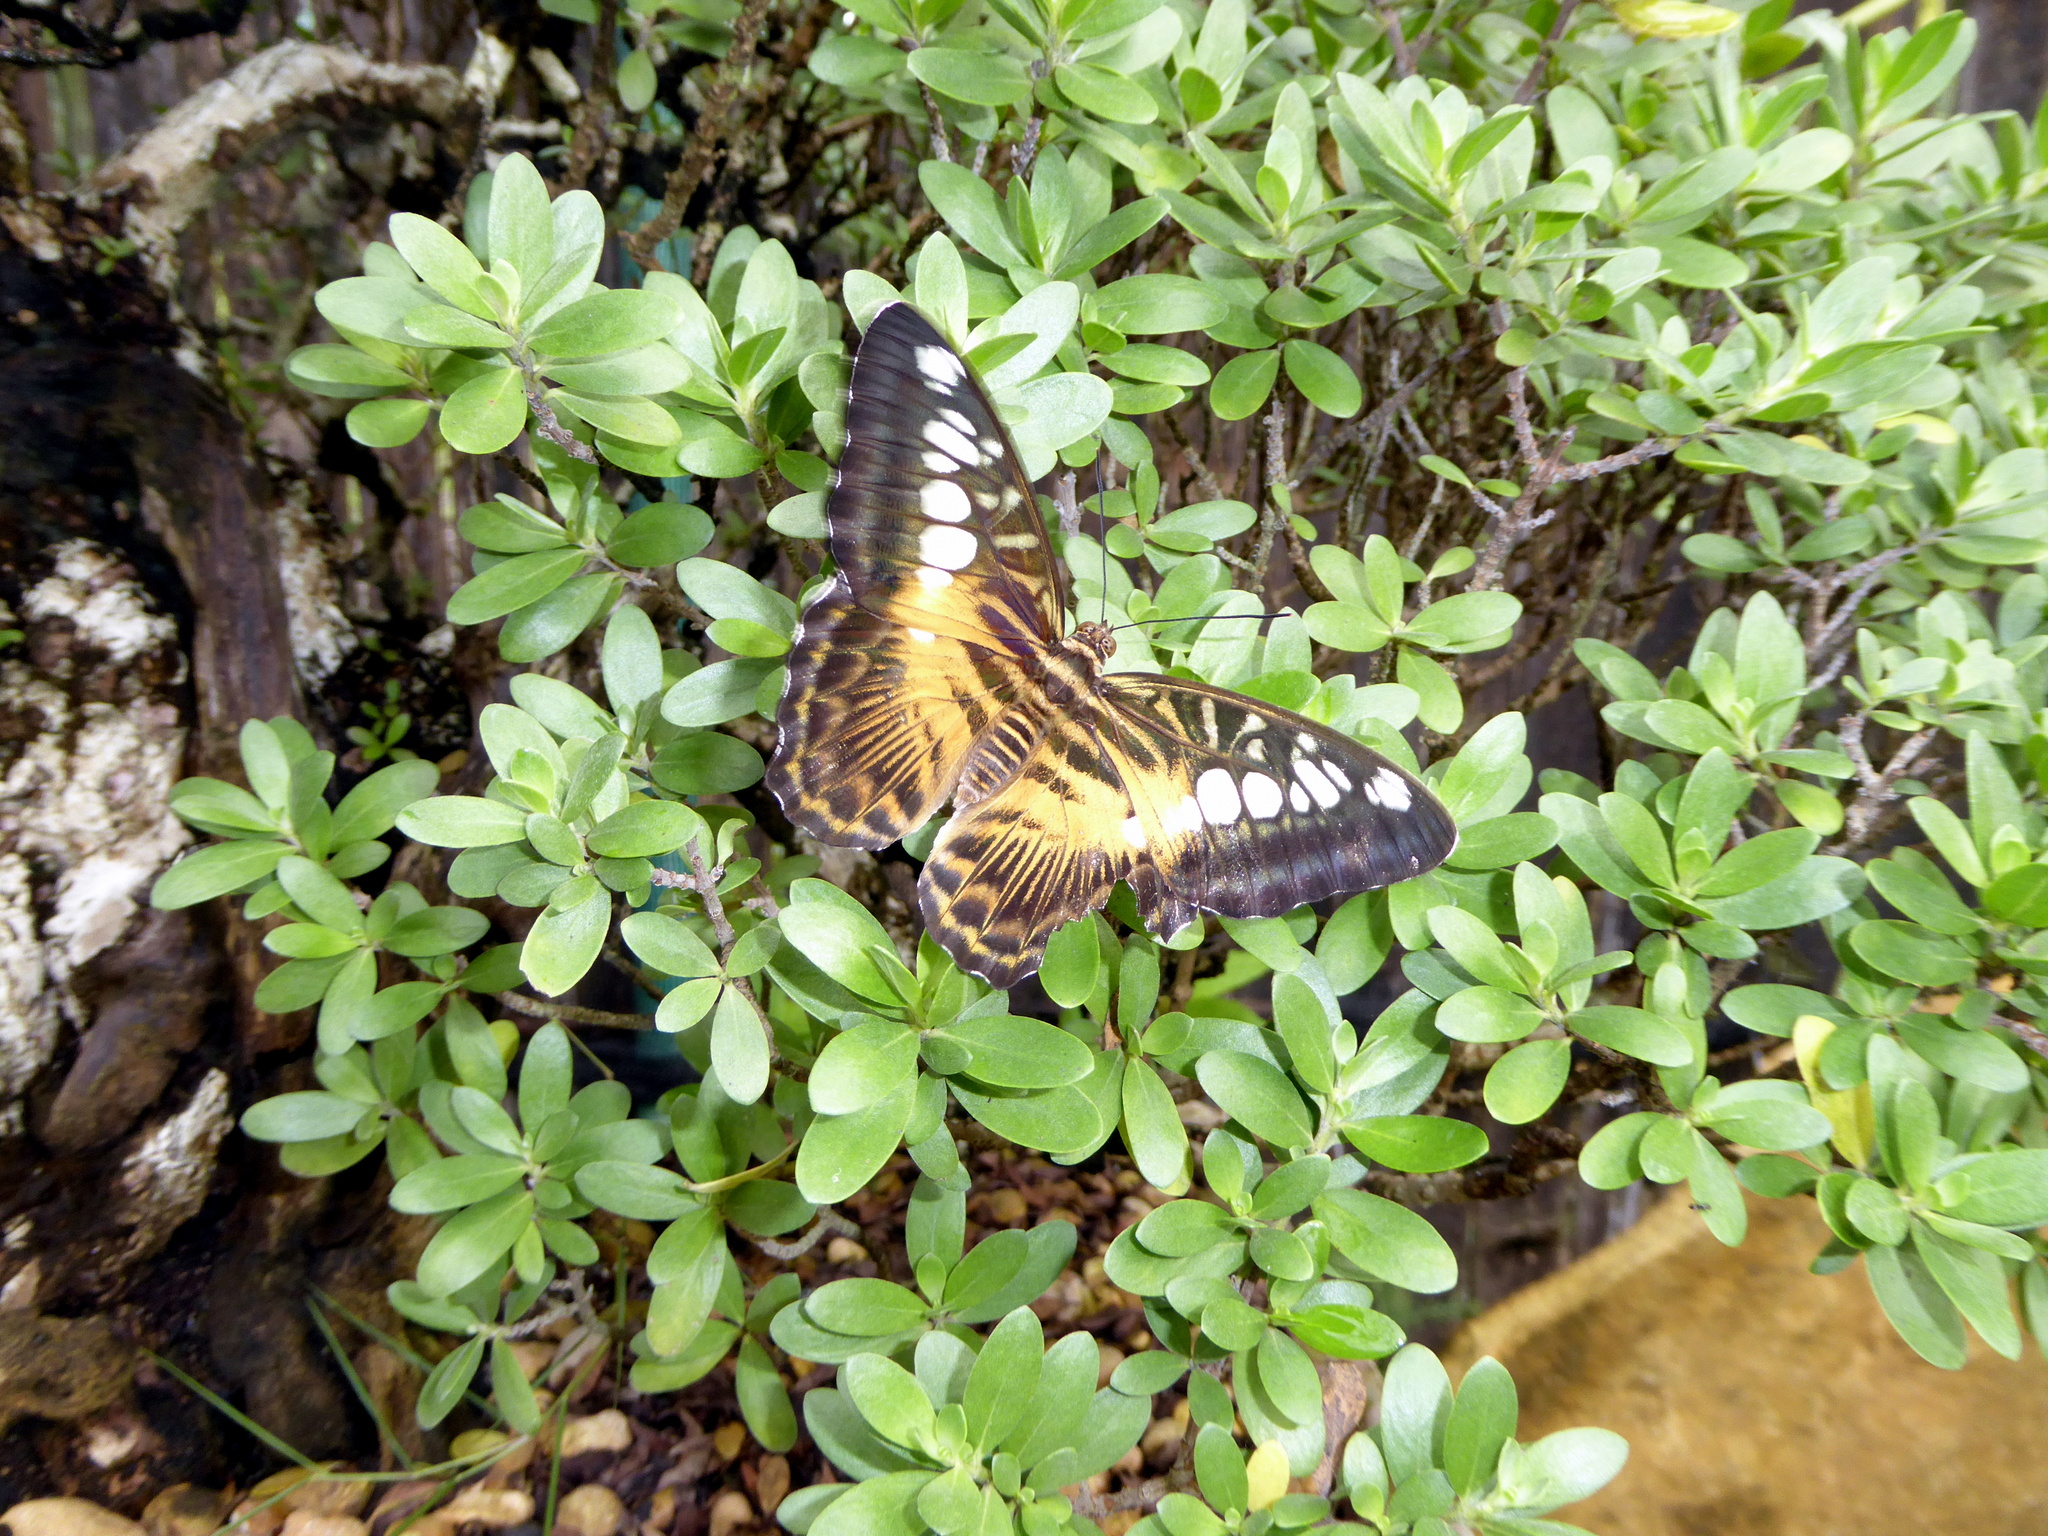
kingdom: Animalia
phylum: Arthropoda
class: Insecta
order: Lepidoptera
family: Nymphalidae
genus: Kallima
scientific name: Kallima sylvia
